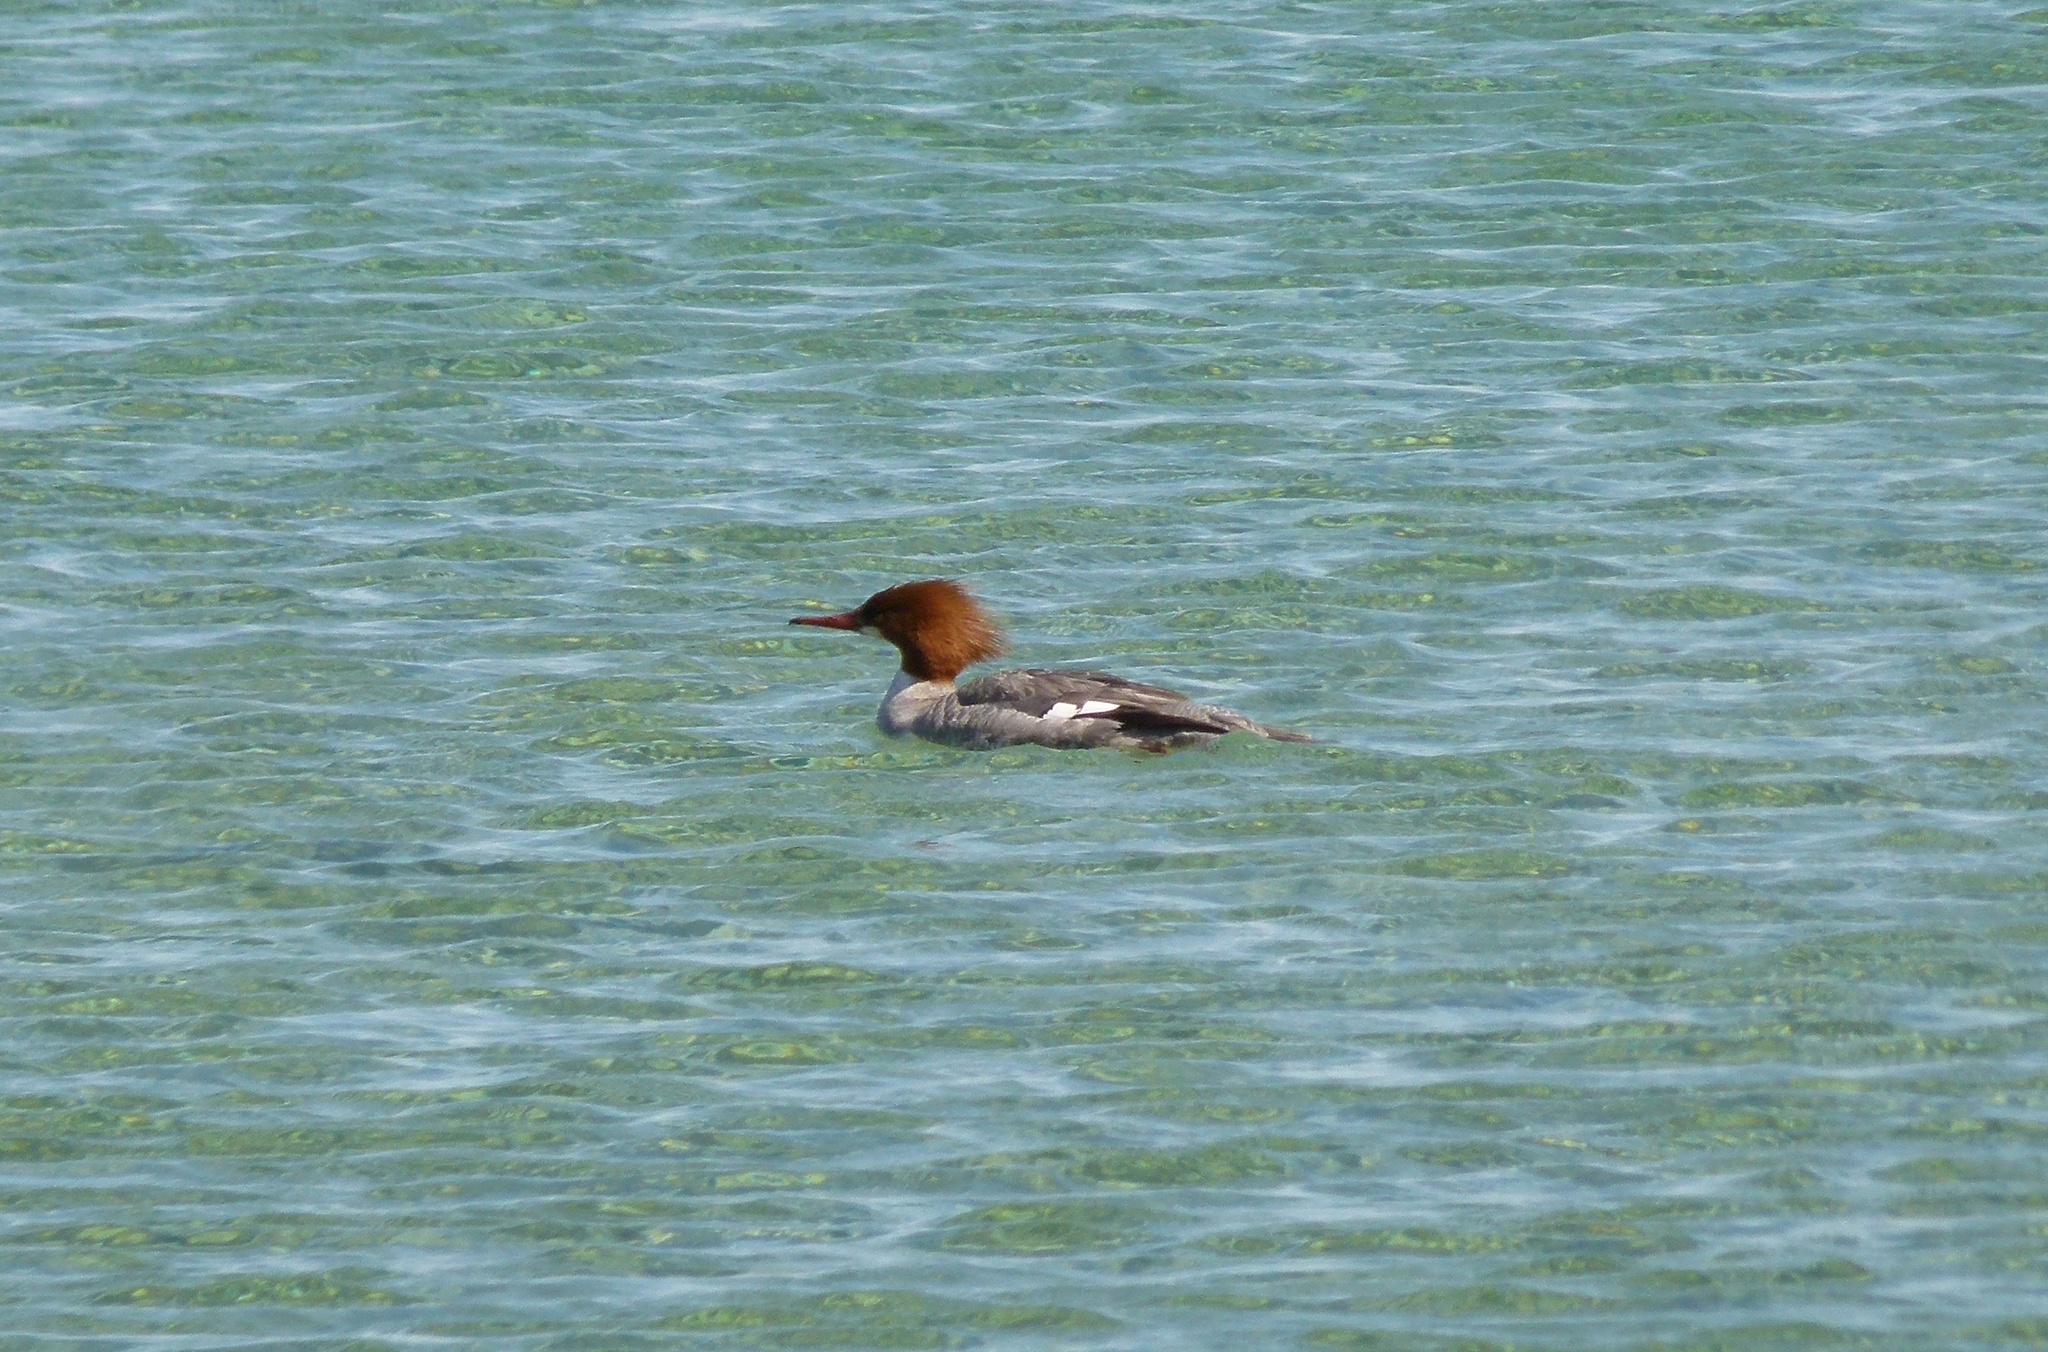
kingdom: Animalia
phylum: Chordata
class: Aves
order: Anseriformes
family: Anatidae
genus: Mergus
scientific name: Mergus merganser
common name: Common merganser
